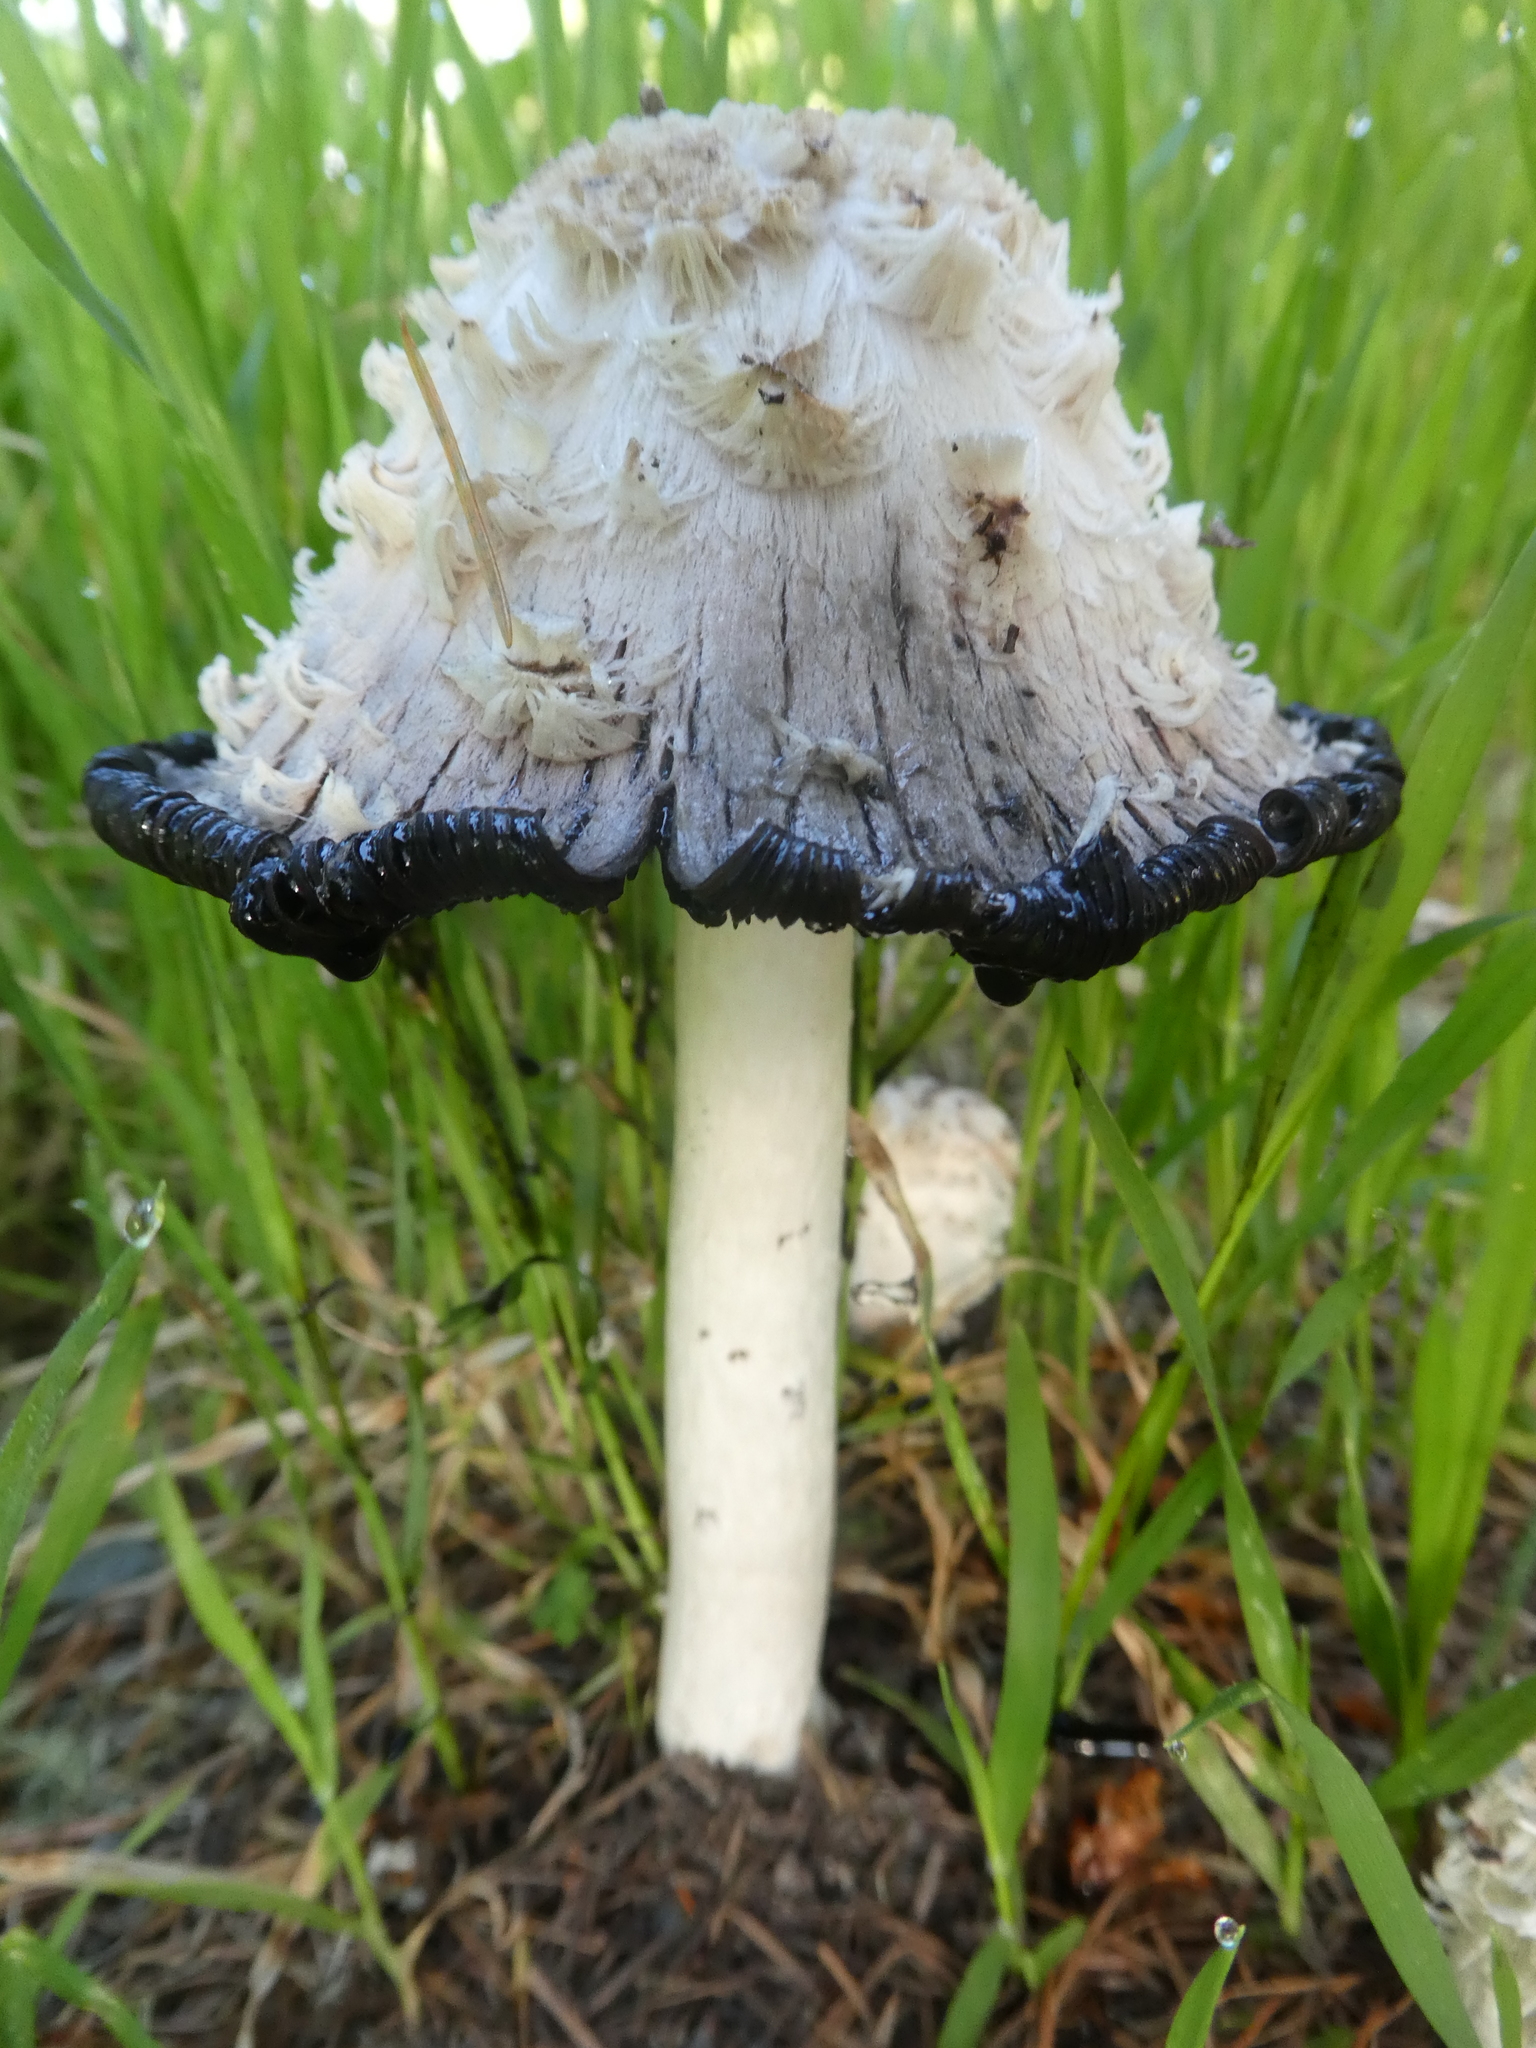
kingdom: Fungi
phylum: Basidiomycota
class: Agaricomycetes
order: Agaricales
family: Agaricaceae
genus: Coprinus
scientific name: Coprinus comatus
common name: Lawyer's wig
